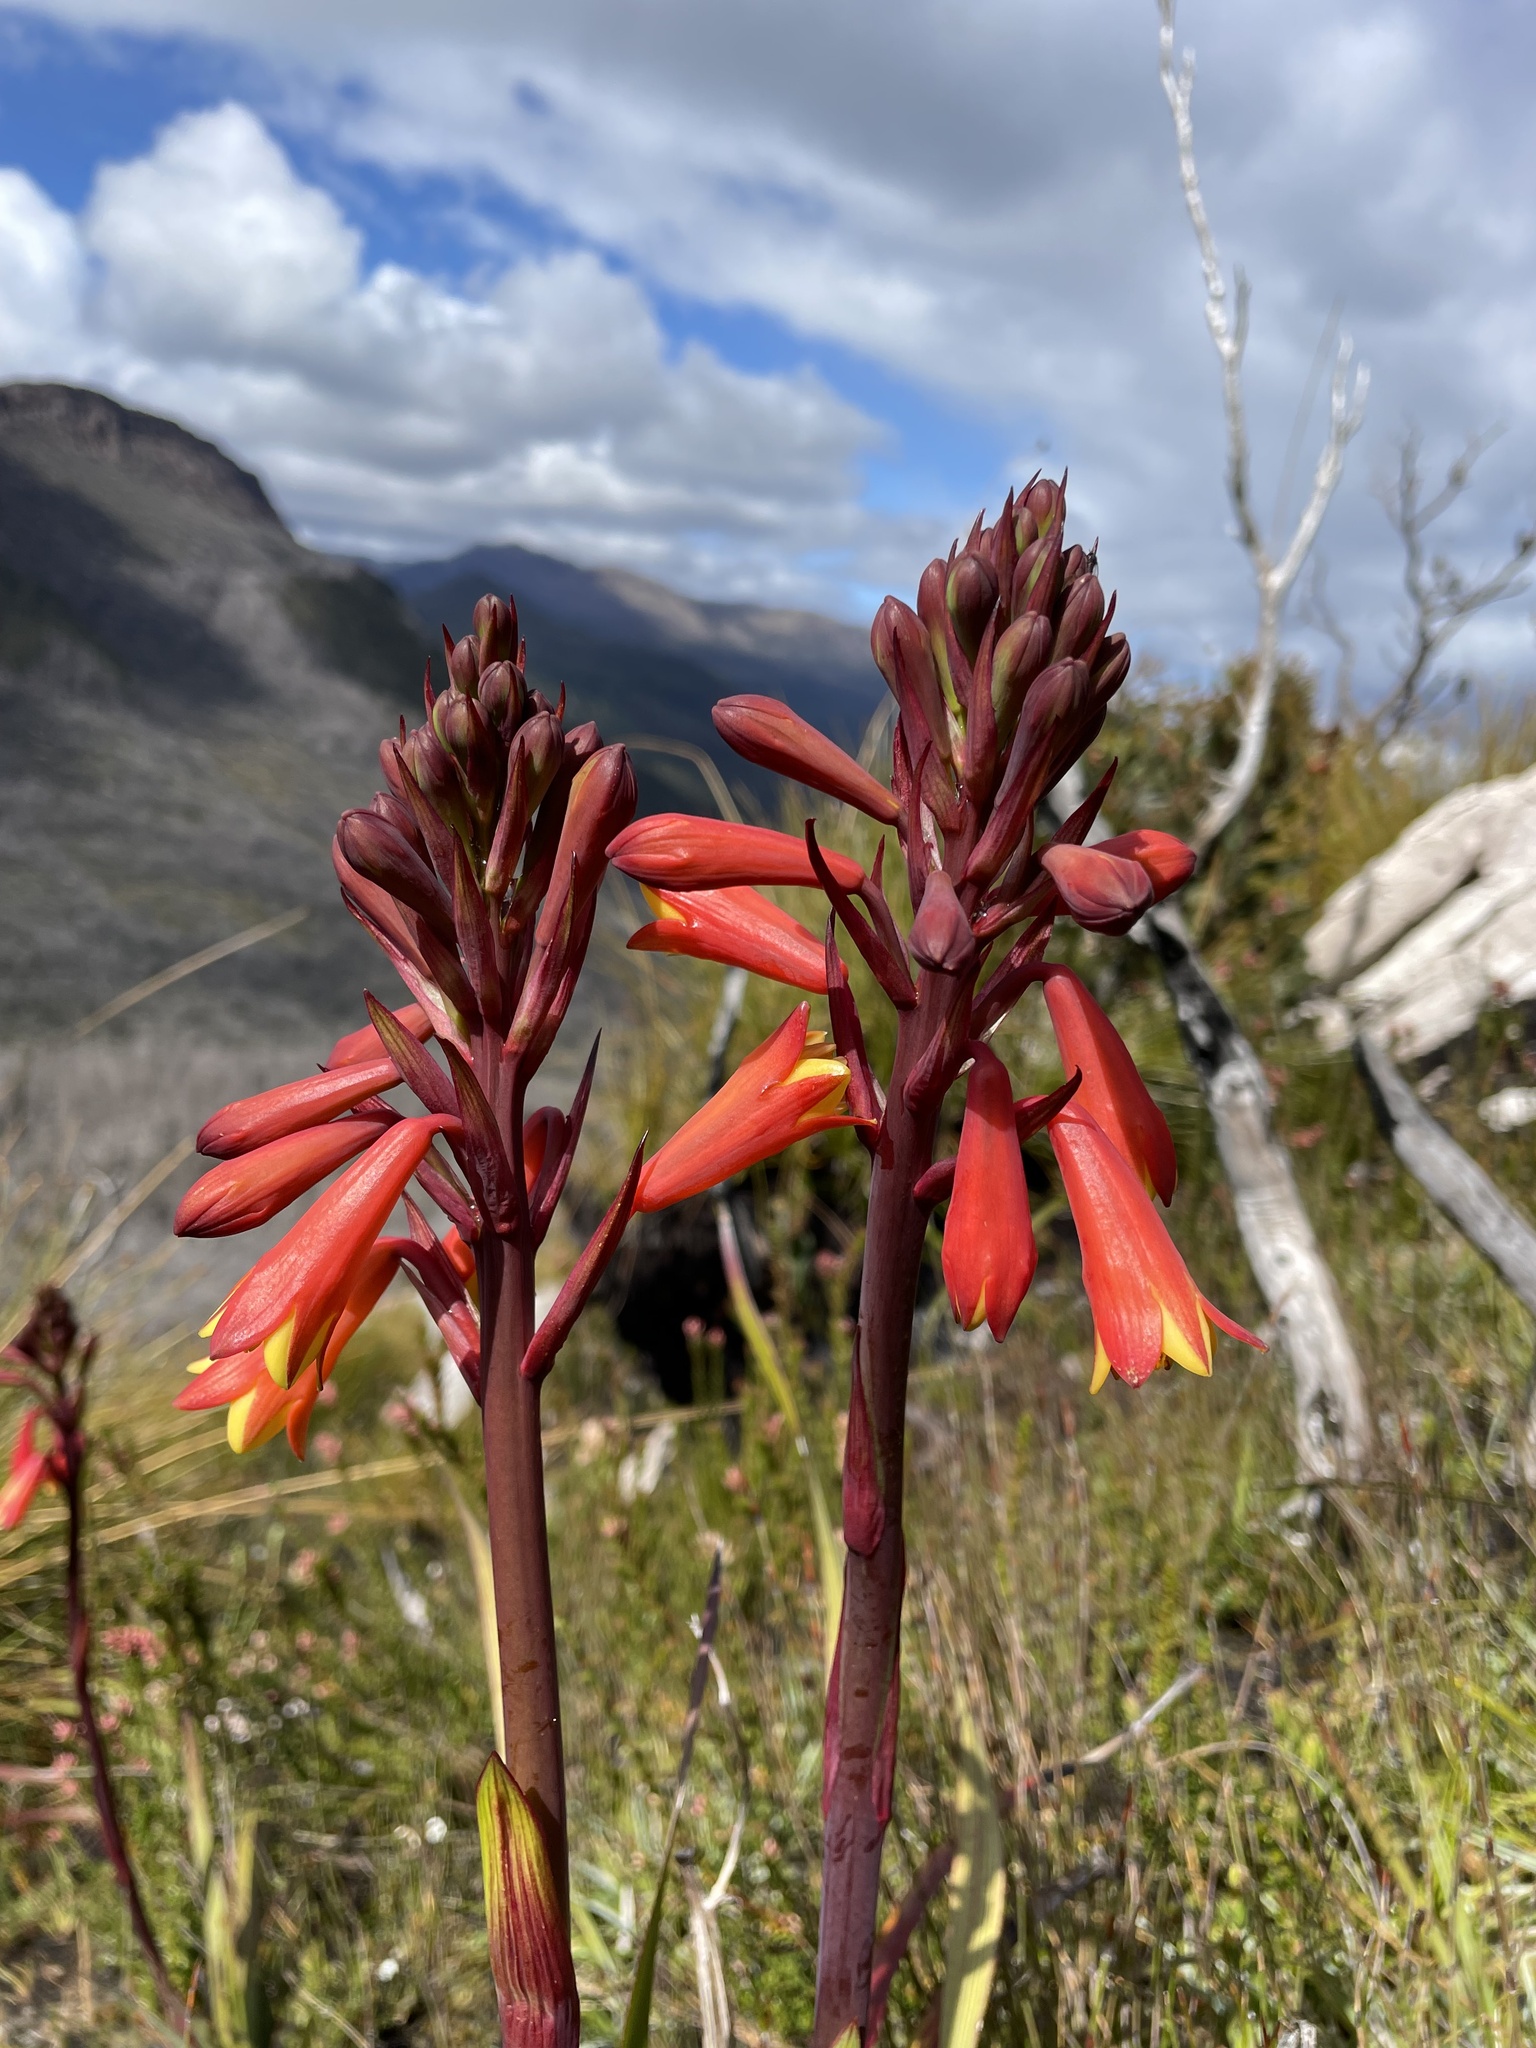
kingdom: Plantae
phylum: Tracheophyta
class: Liliopsida
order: Asparagales
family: Blandfordiaceae
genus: Blandfordia
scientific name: Blandfordia punicea
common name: Tasmanian christmas-bell
